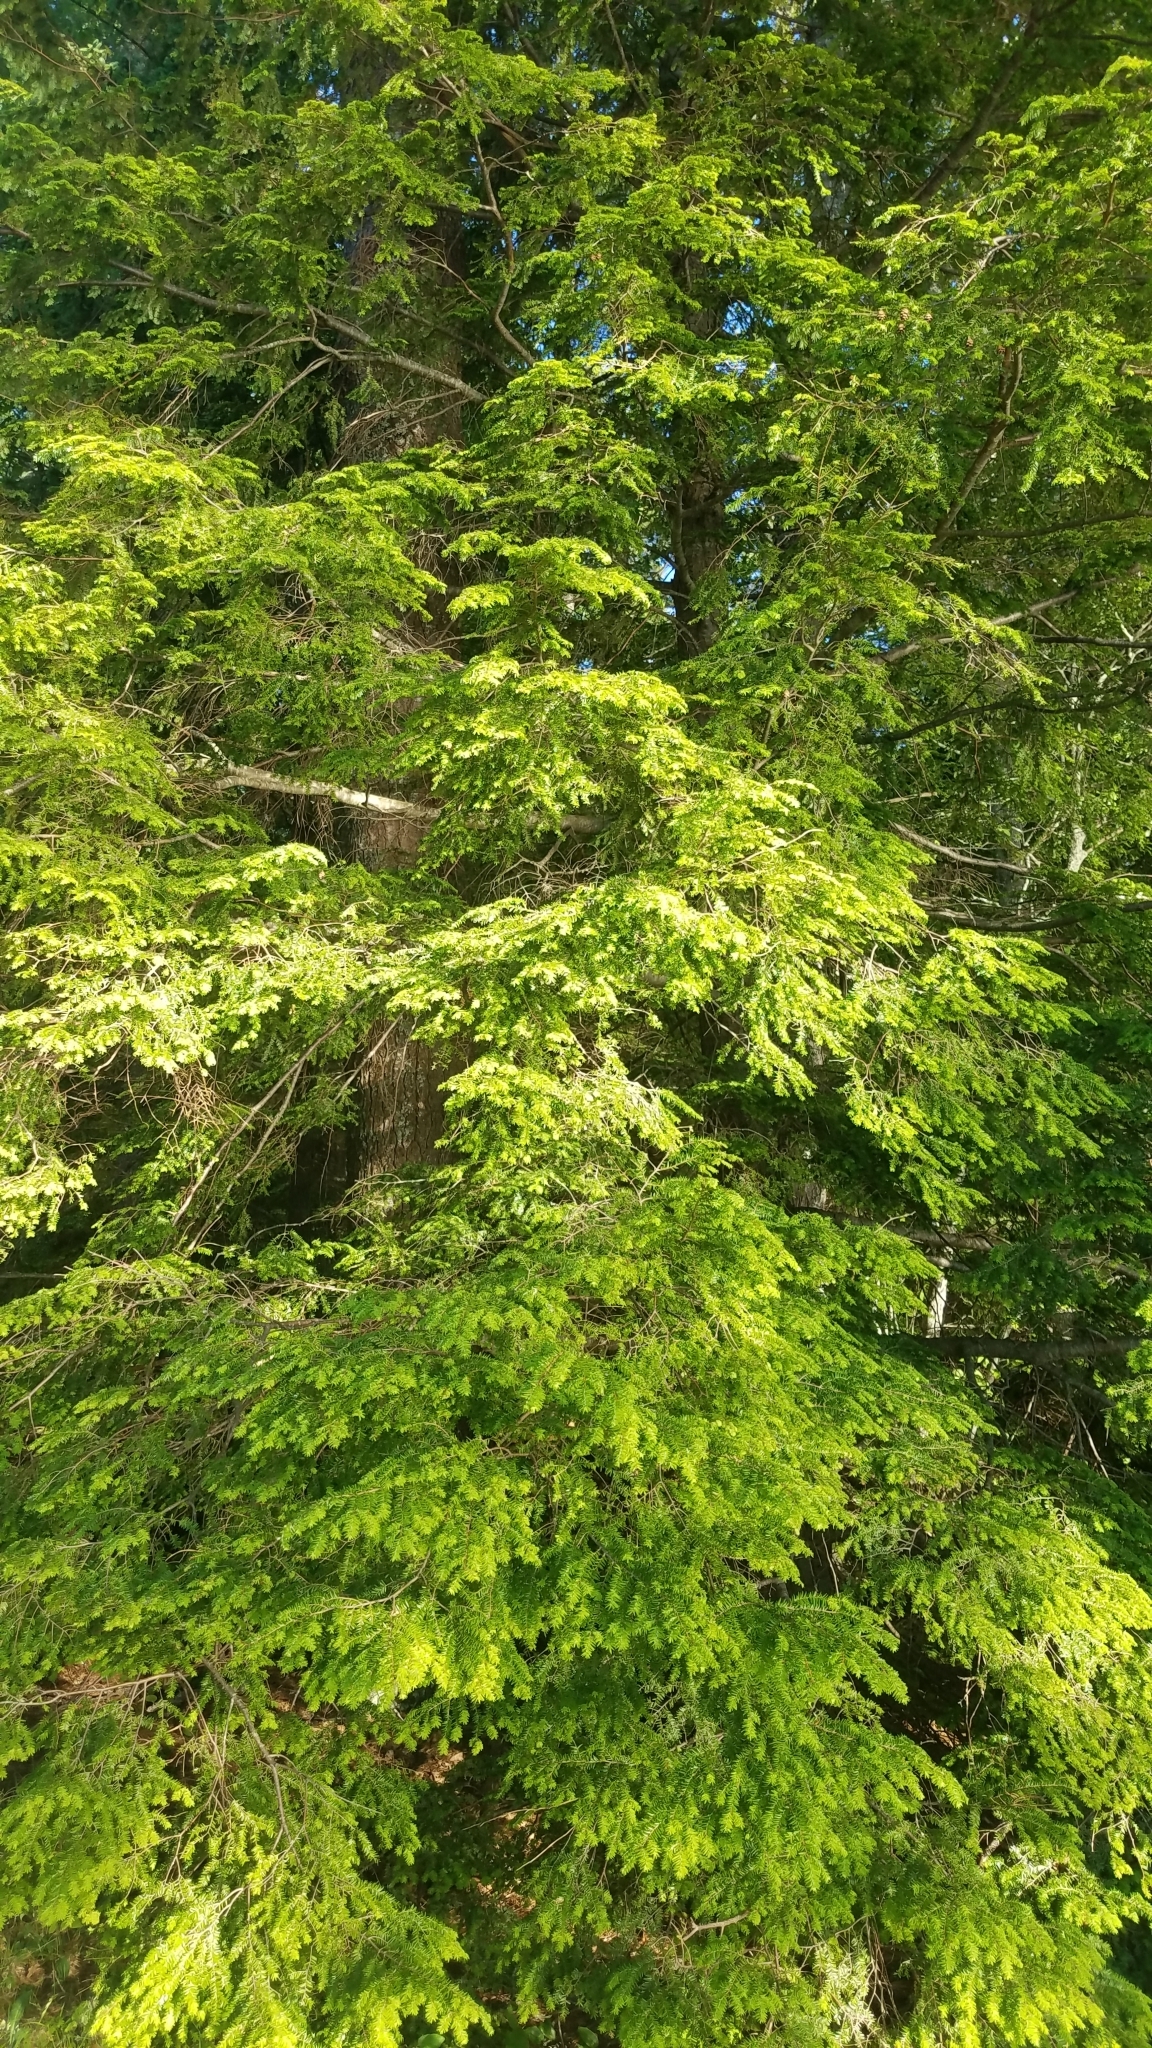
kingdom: Plantae
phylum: Tracheophyta
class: Pinopsida
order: Pinales
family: Pinaceae
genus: Tsuga
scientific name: Tsuga canadensis
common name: Eastern hemlock
